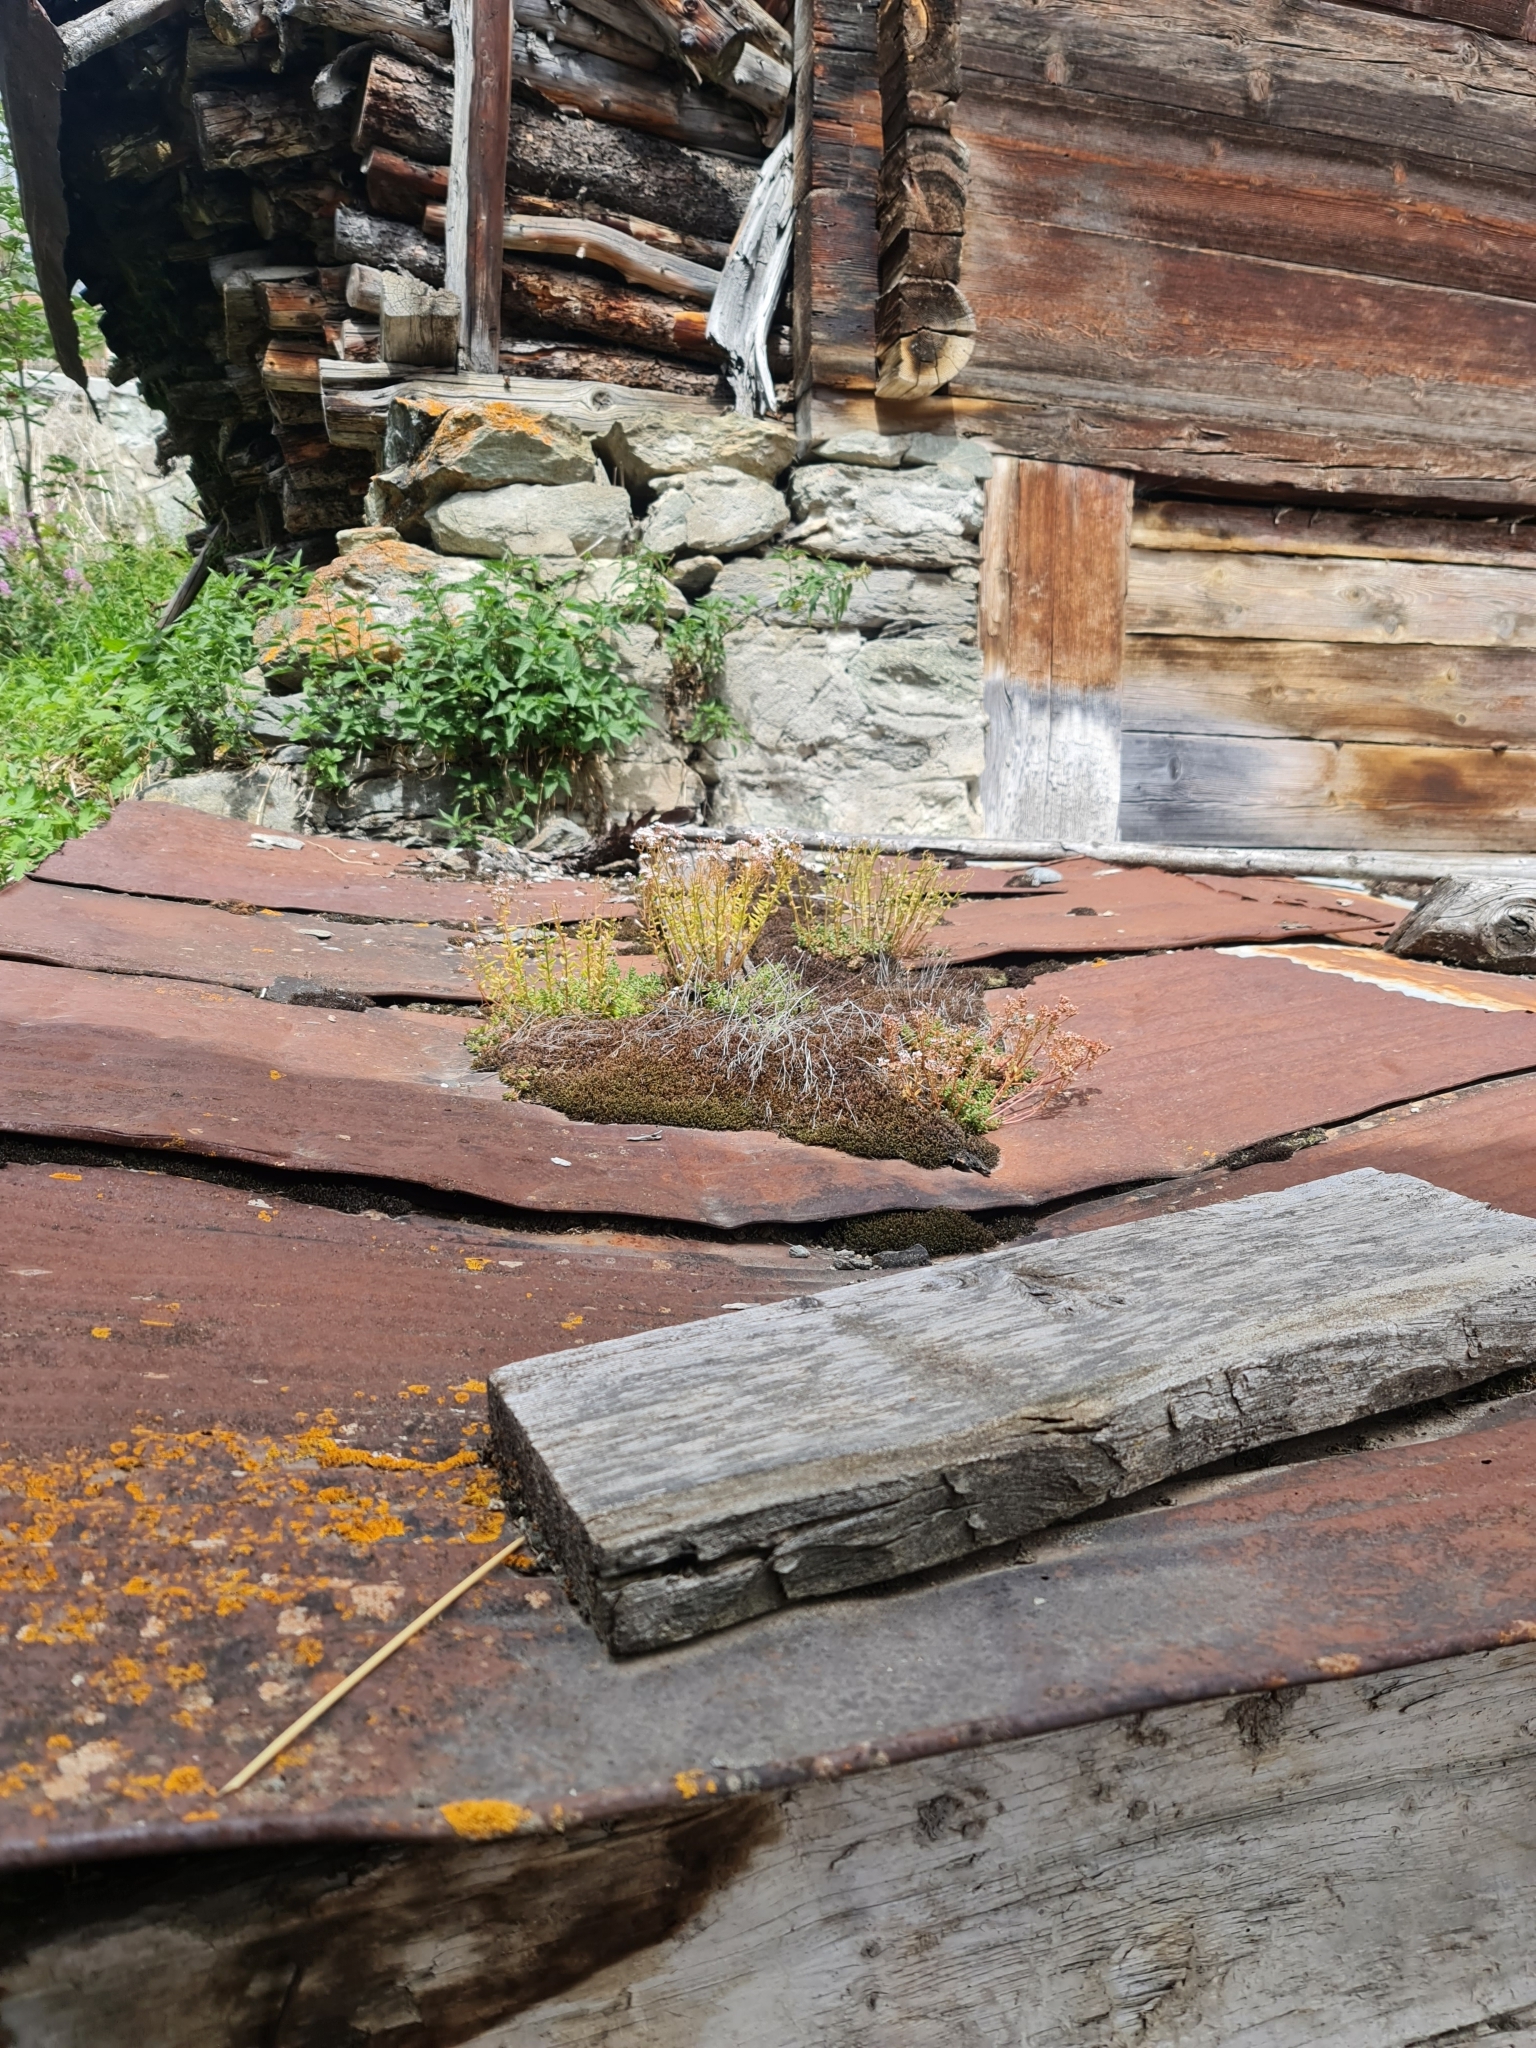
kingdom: Plantae
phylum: Tracheophyta
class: Magnoliopsida
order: Saxifragales
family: Crassulaceae
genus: Sedum
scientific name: Sedum album
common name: White stonecrop
